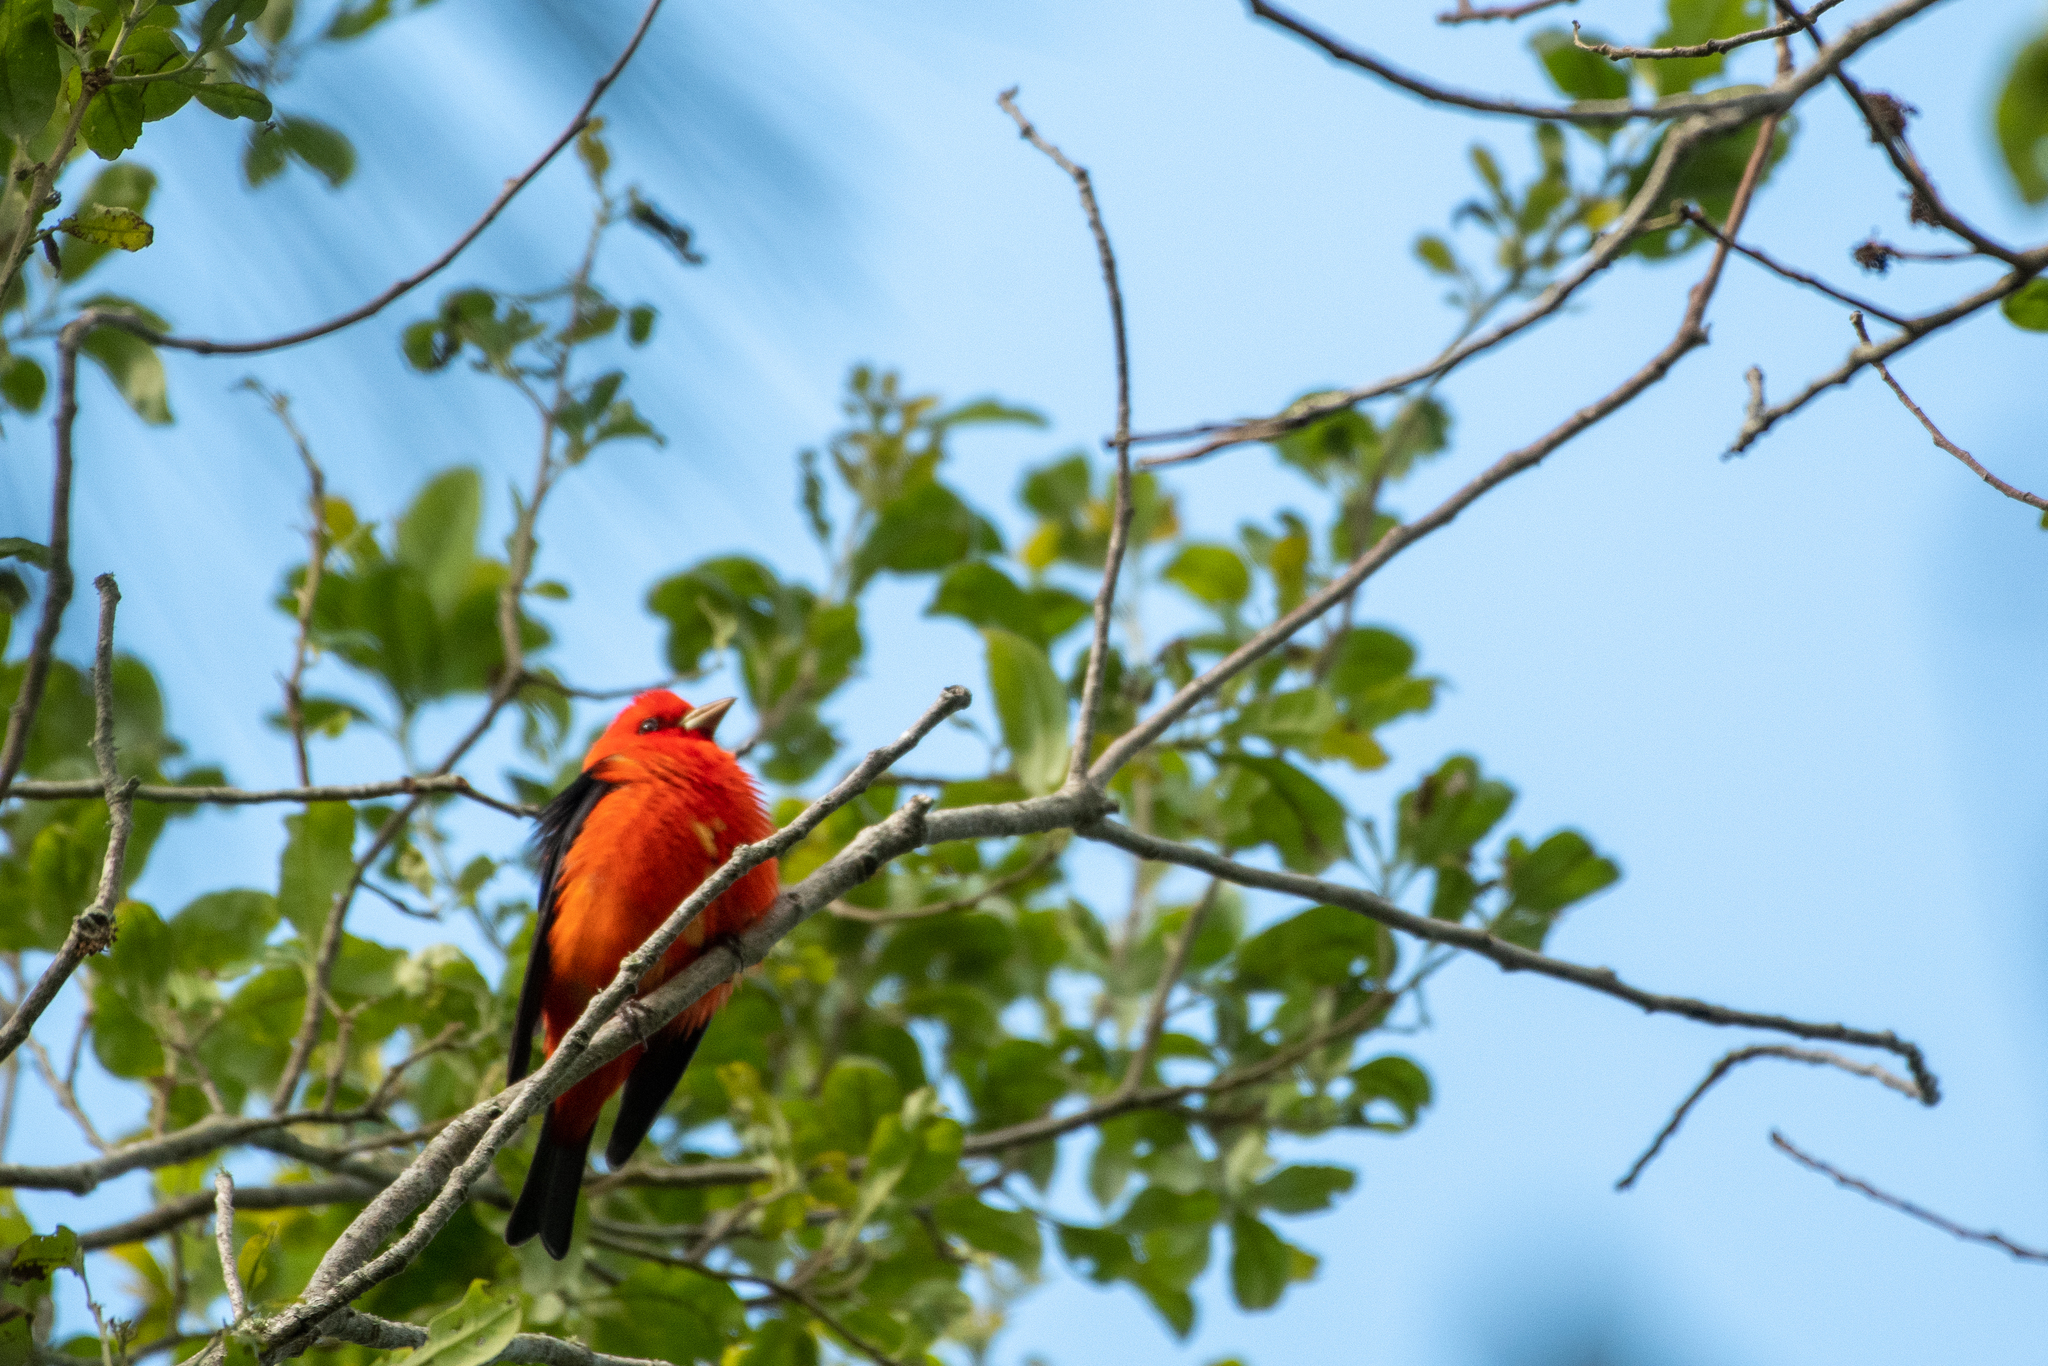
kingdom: Animalia
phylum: Chordata
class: Aves
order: Passeriformes
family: Cardinalidae
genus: Piranga
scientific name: Piranga olivacea
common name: Scarlet tanager
